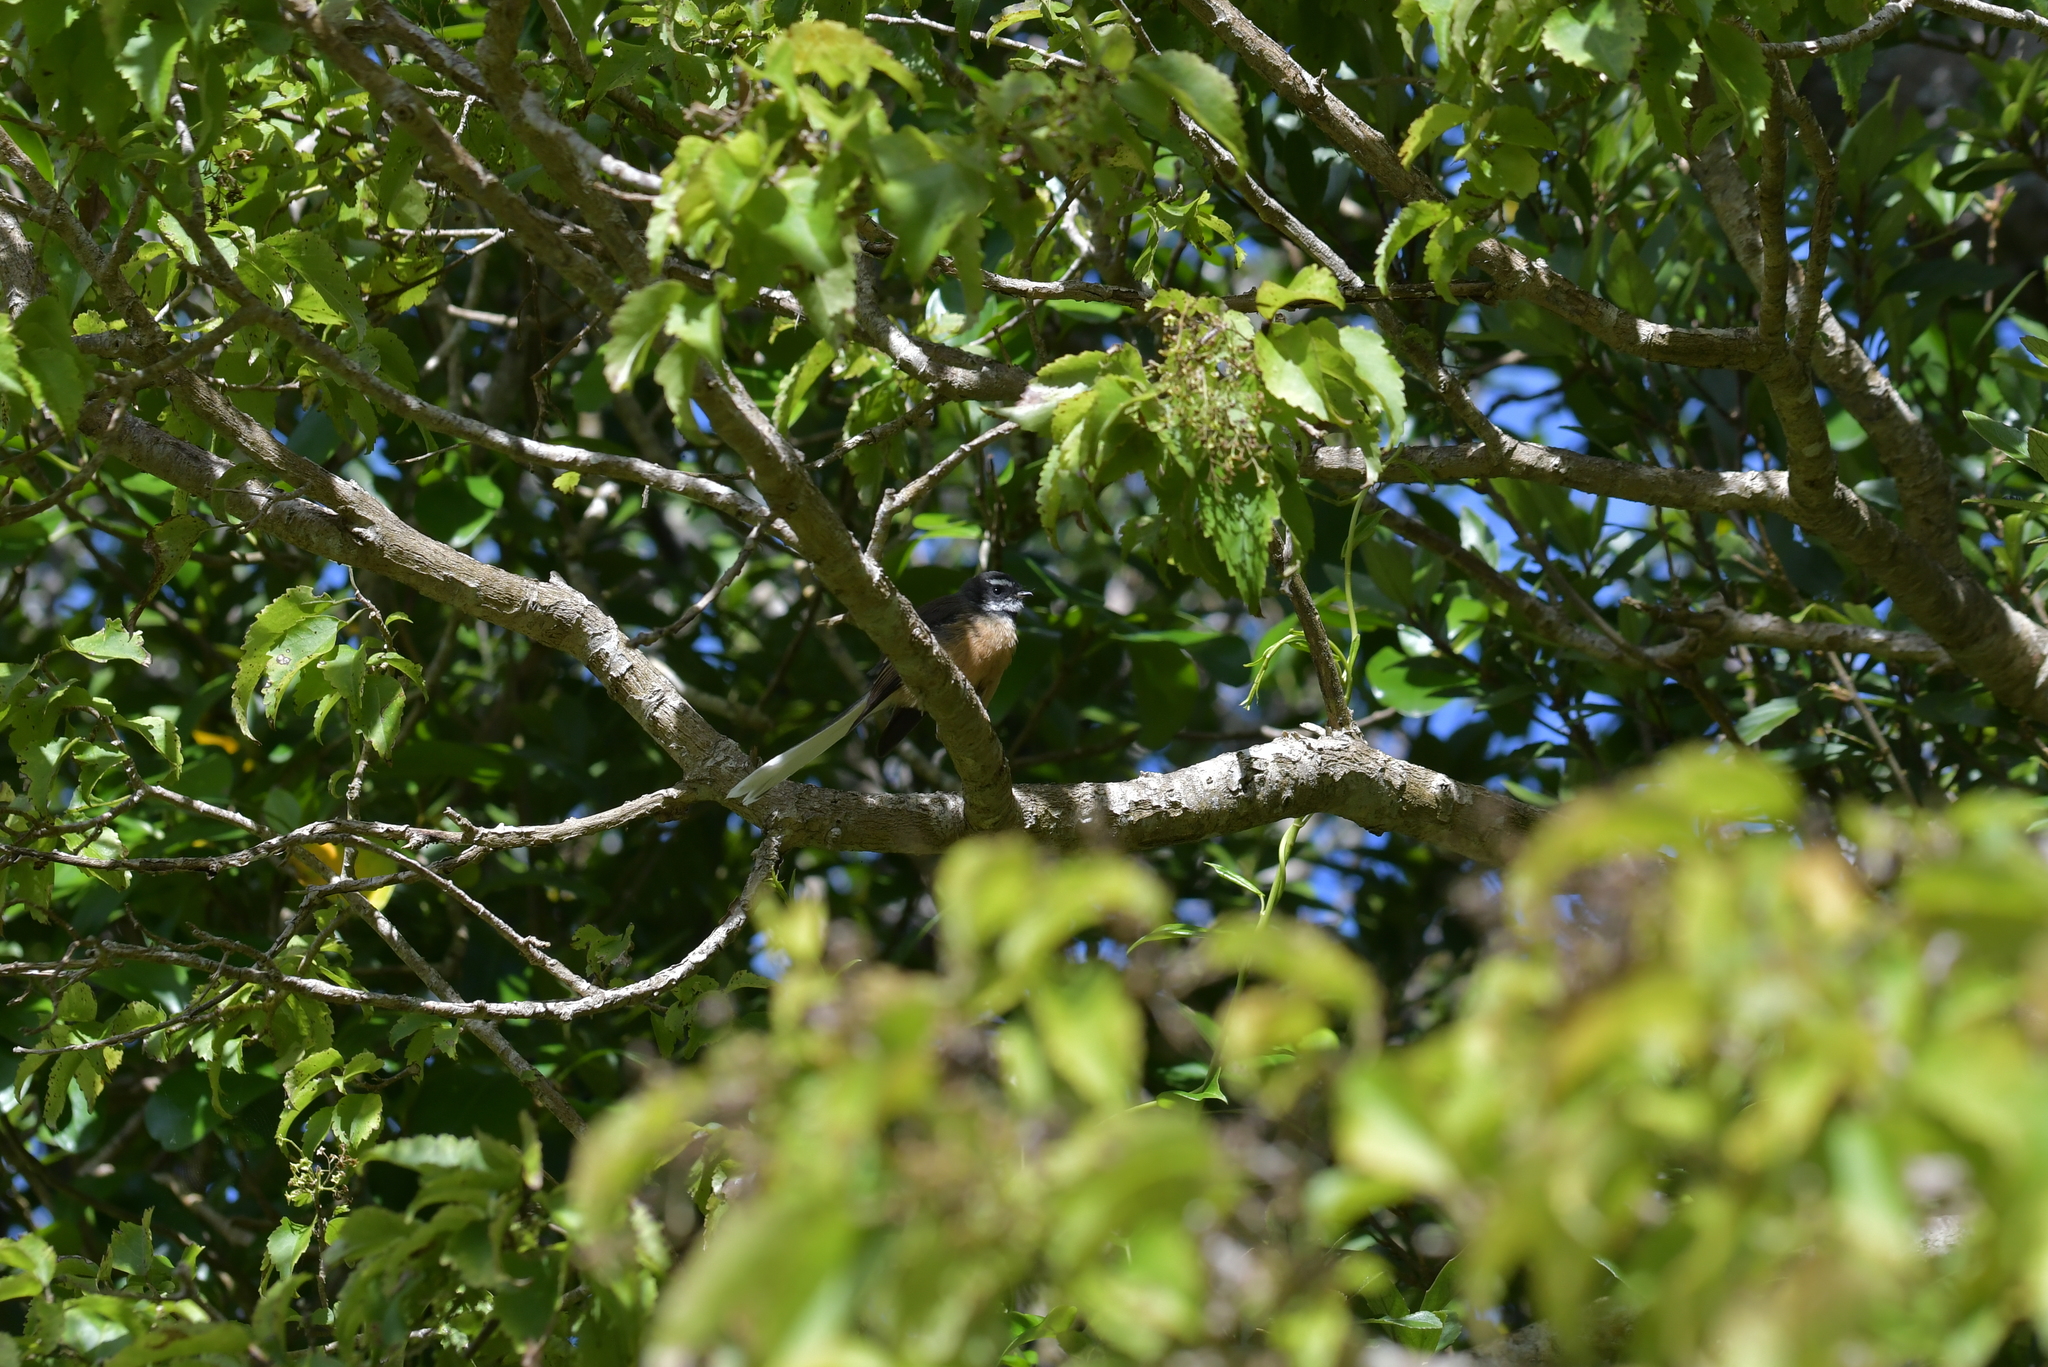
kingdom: Animalia
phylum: Chordata
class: Aves
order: Passeriformes
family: Rhipiduridae
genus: Rhipidura
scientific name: Rhipidura fuliginosa
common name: New zealand fantail
